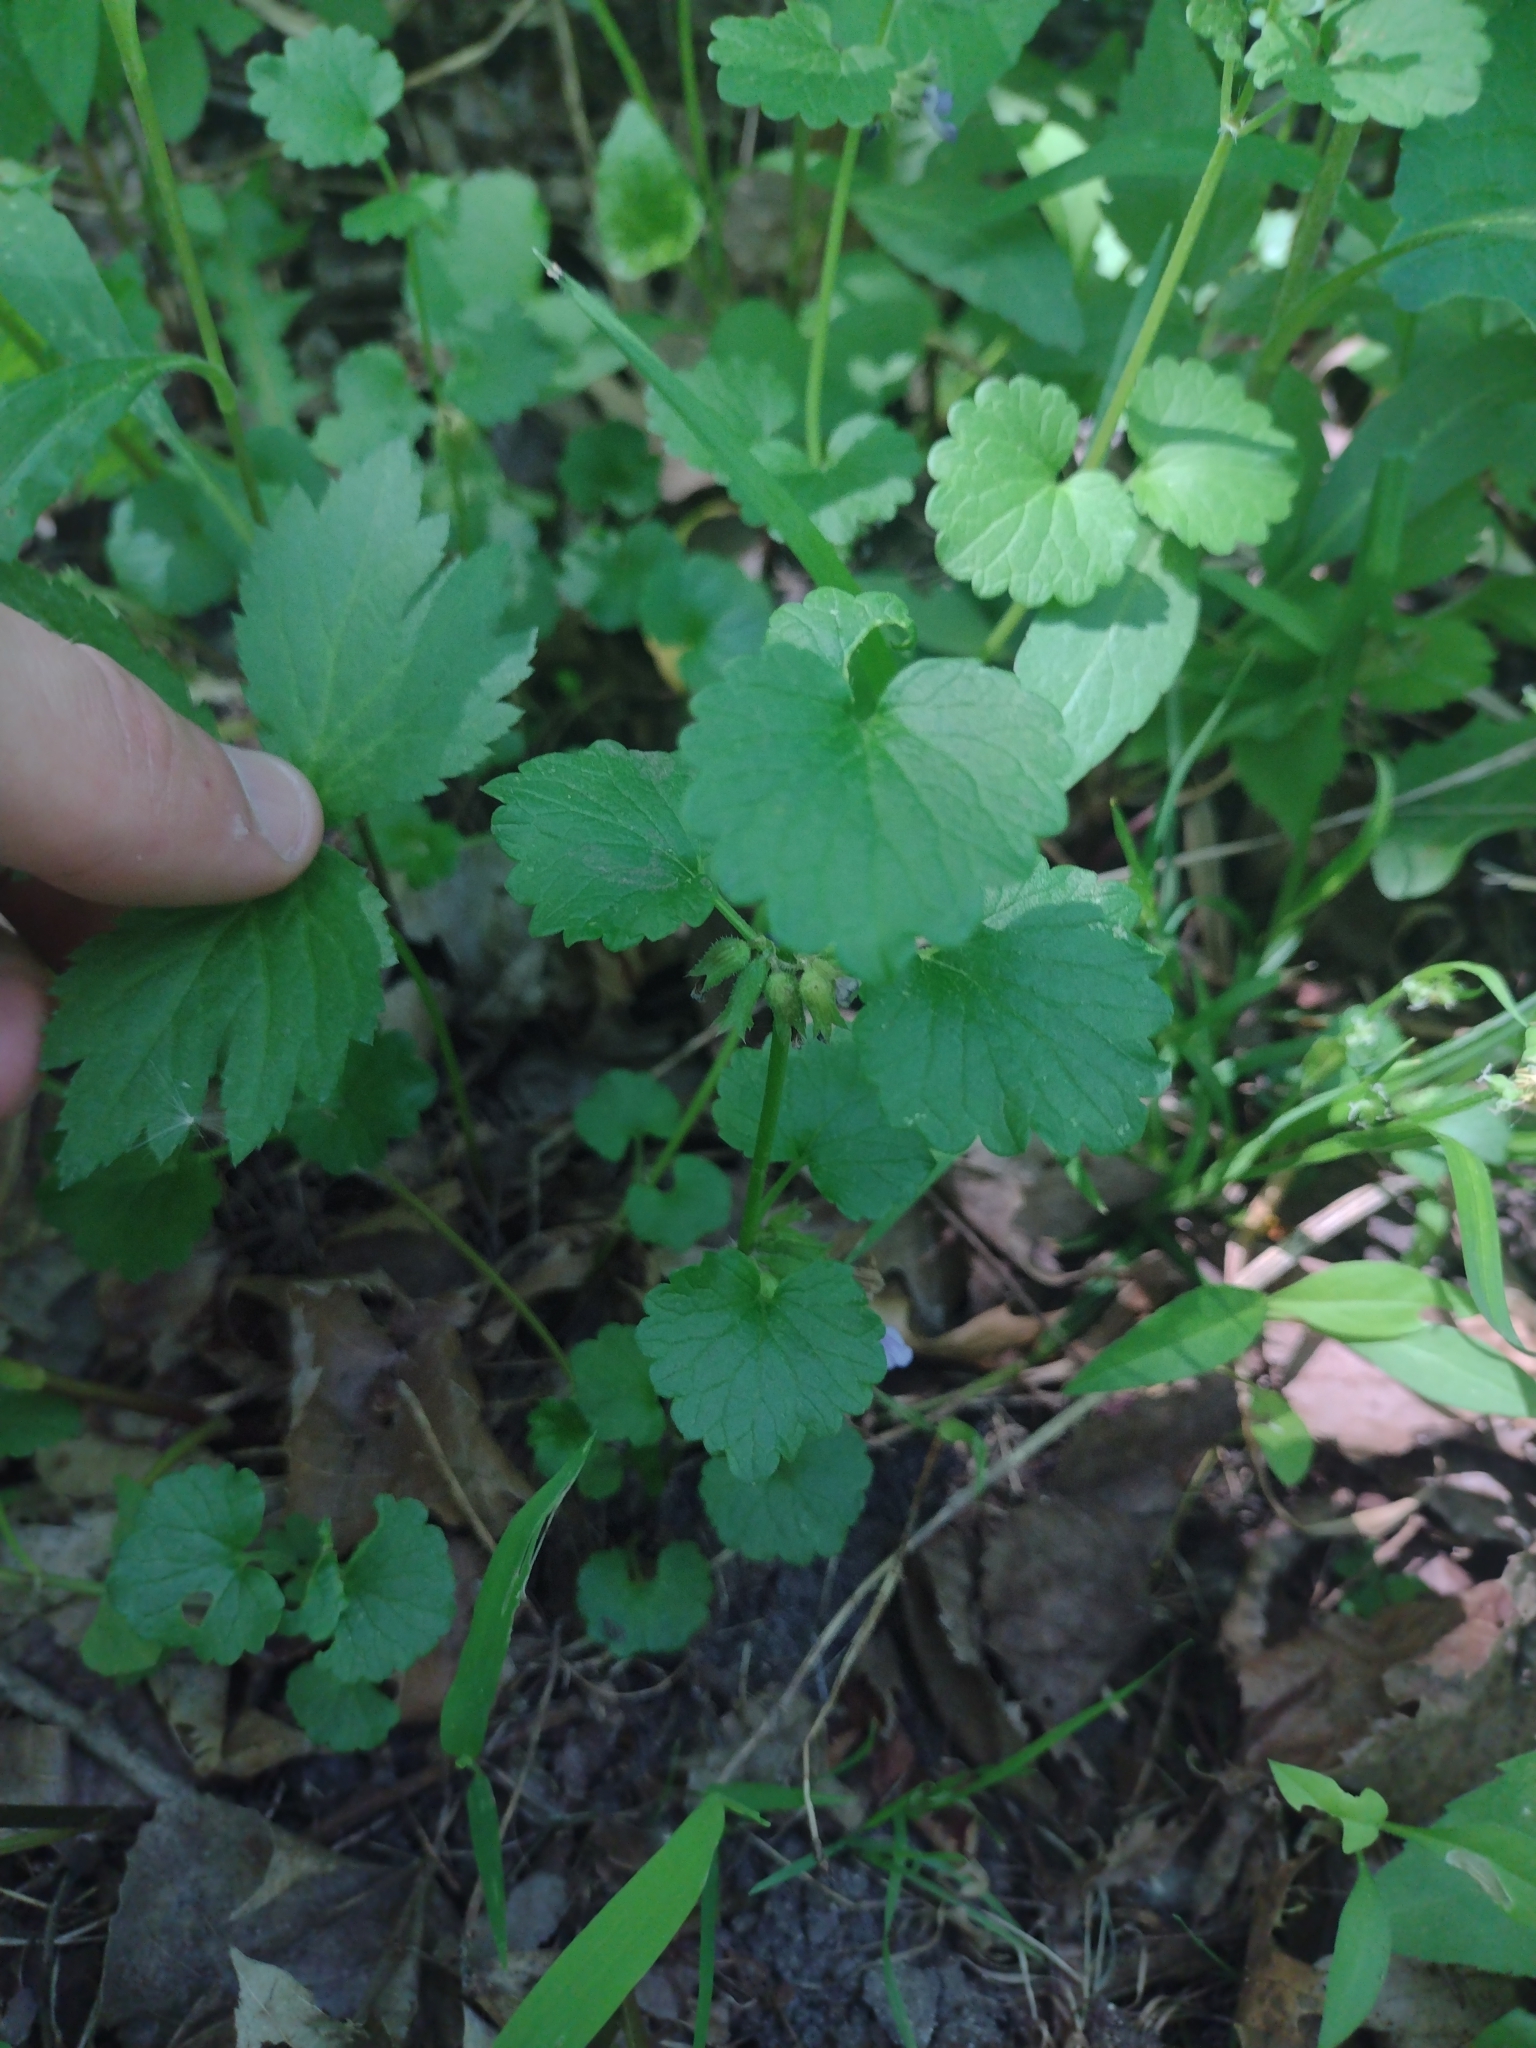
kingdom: Plantae
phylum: Tracheophyta
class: Magnoliopsida
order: Lamiales
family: Lamiaceae
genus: Glechoma
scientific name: Glechoma hederacea
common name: Ground ivy
